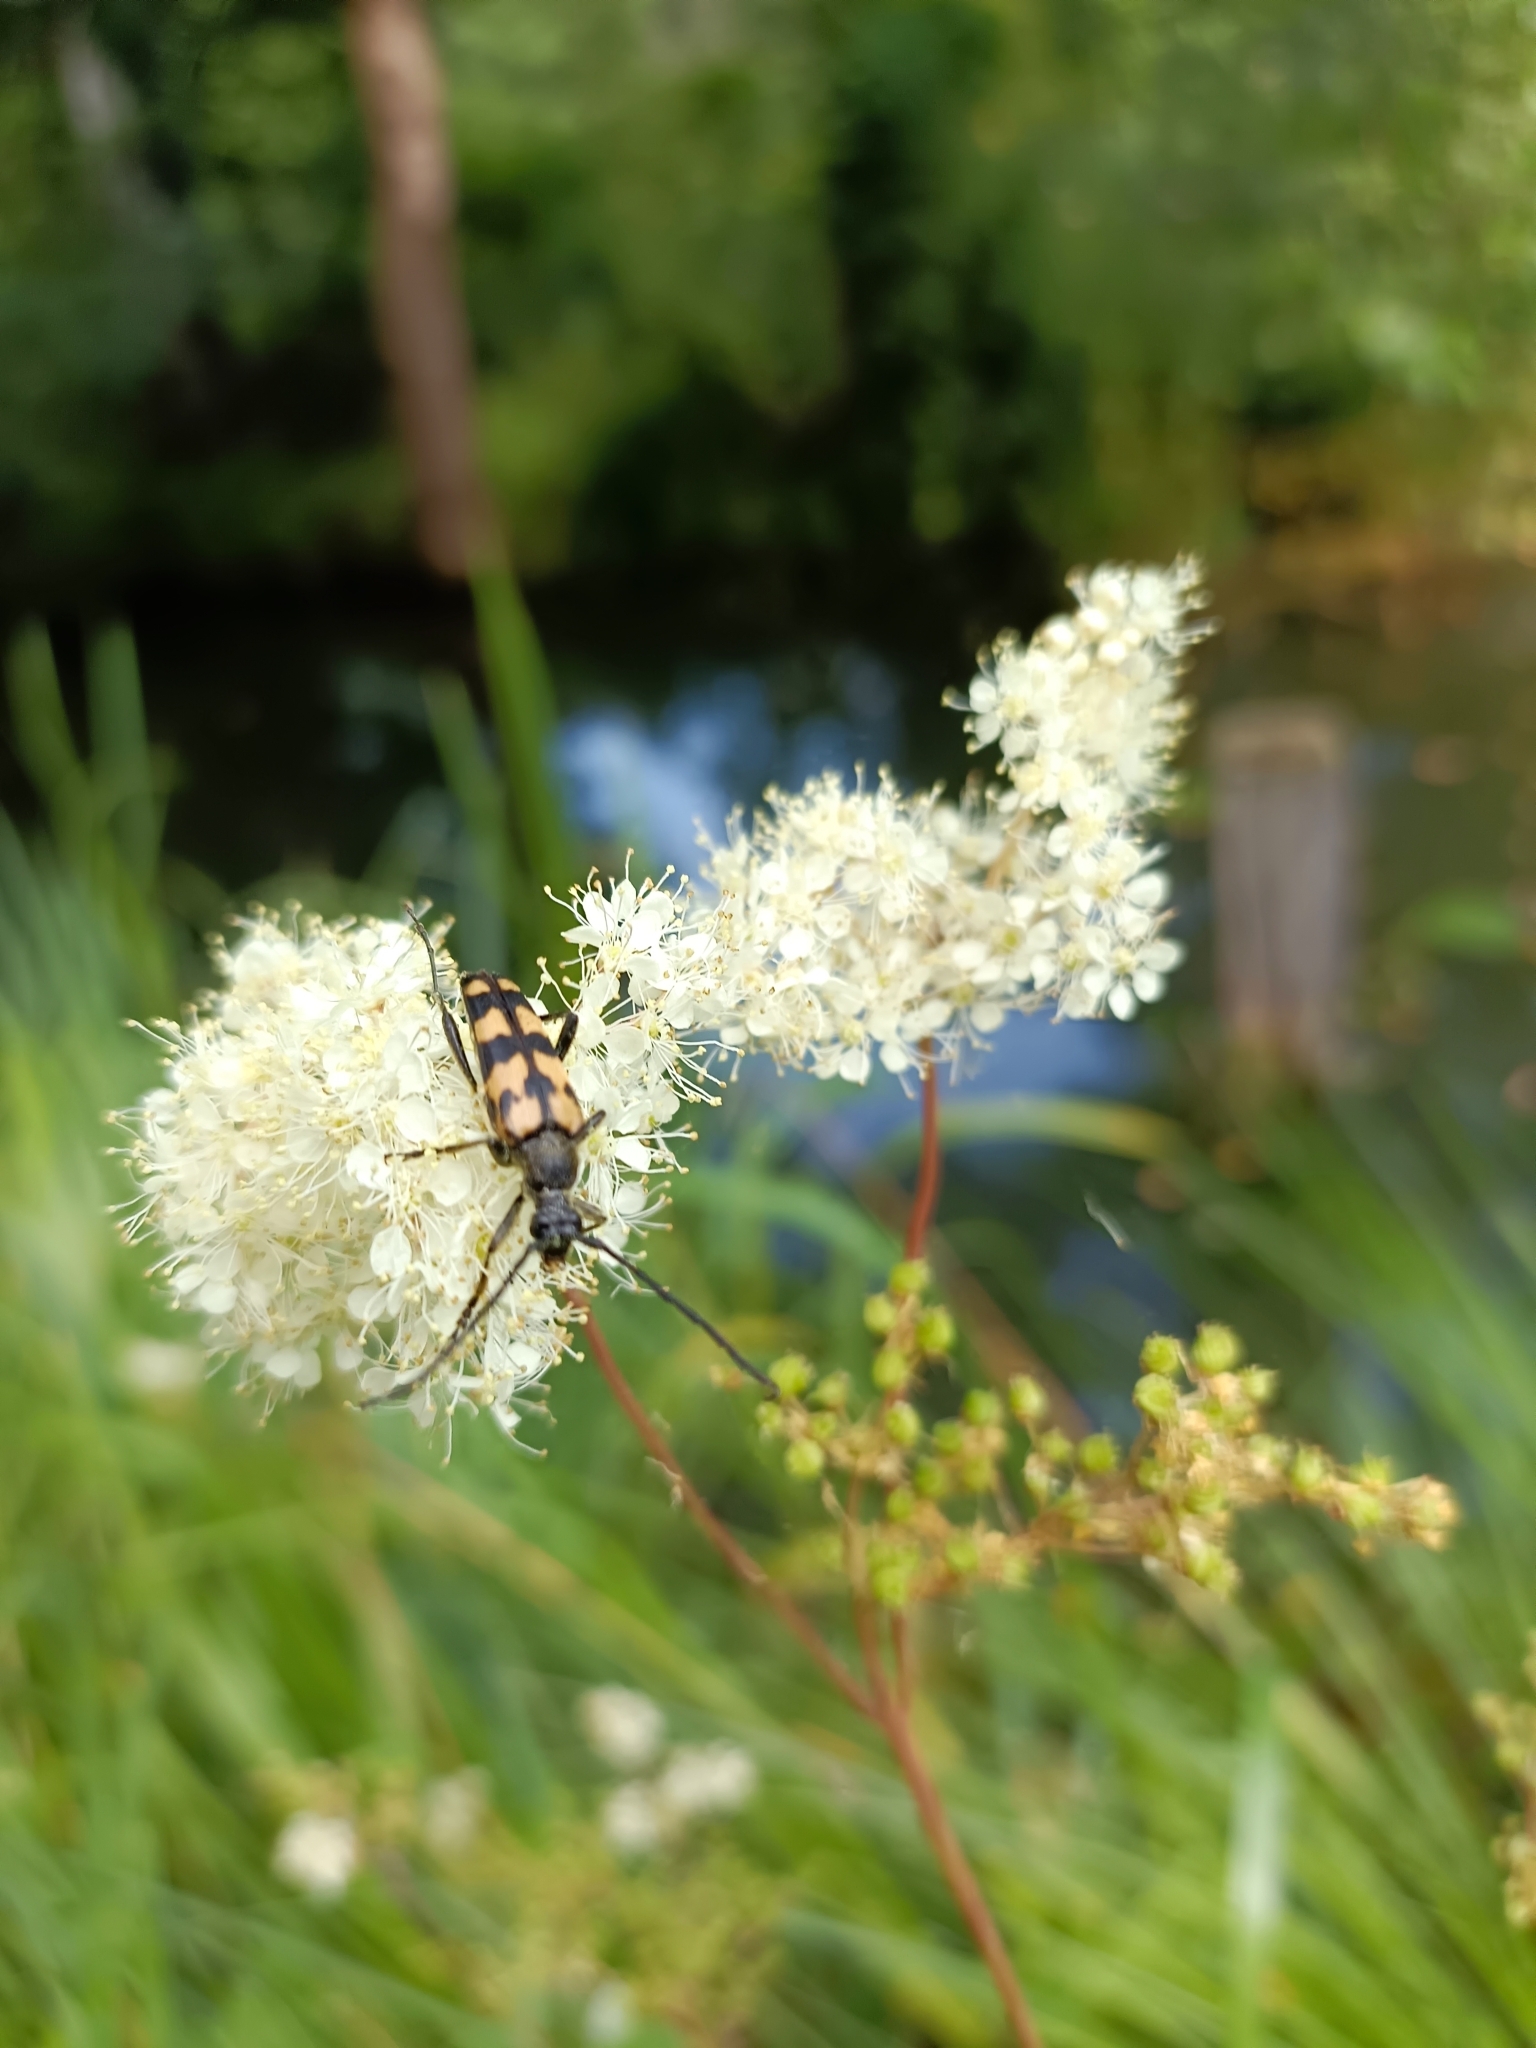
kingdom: Animalia
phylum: Arthropoda
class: Insecta
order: Coleoptera
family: Cerambycidae
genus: Leptura
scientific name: Leptura quadrifasciata
